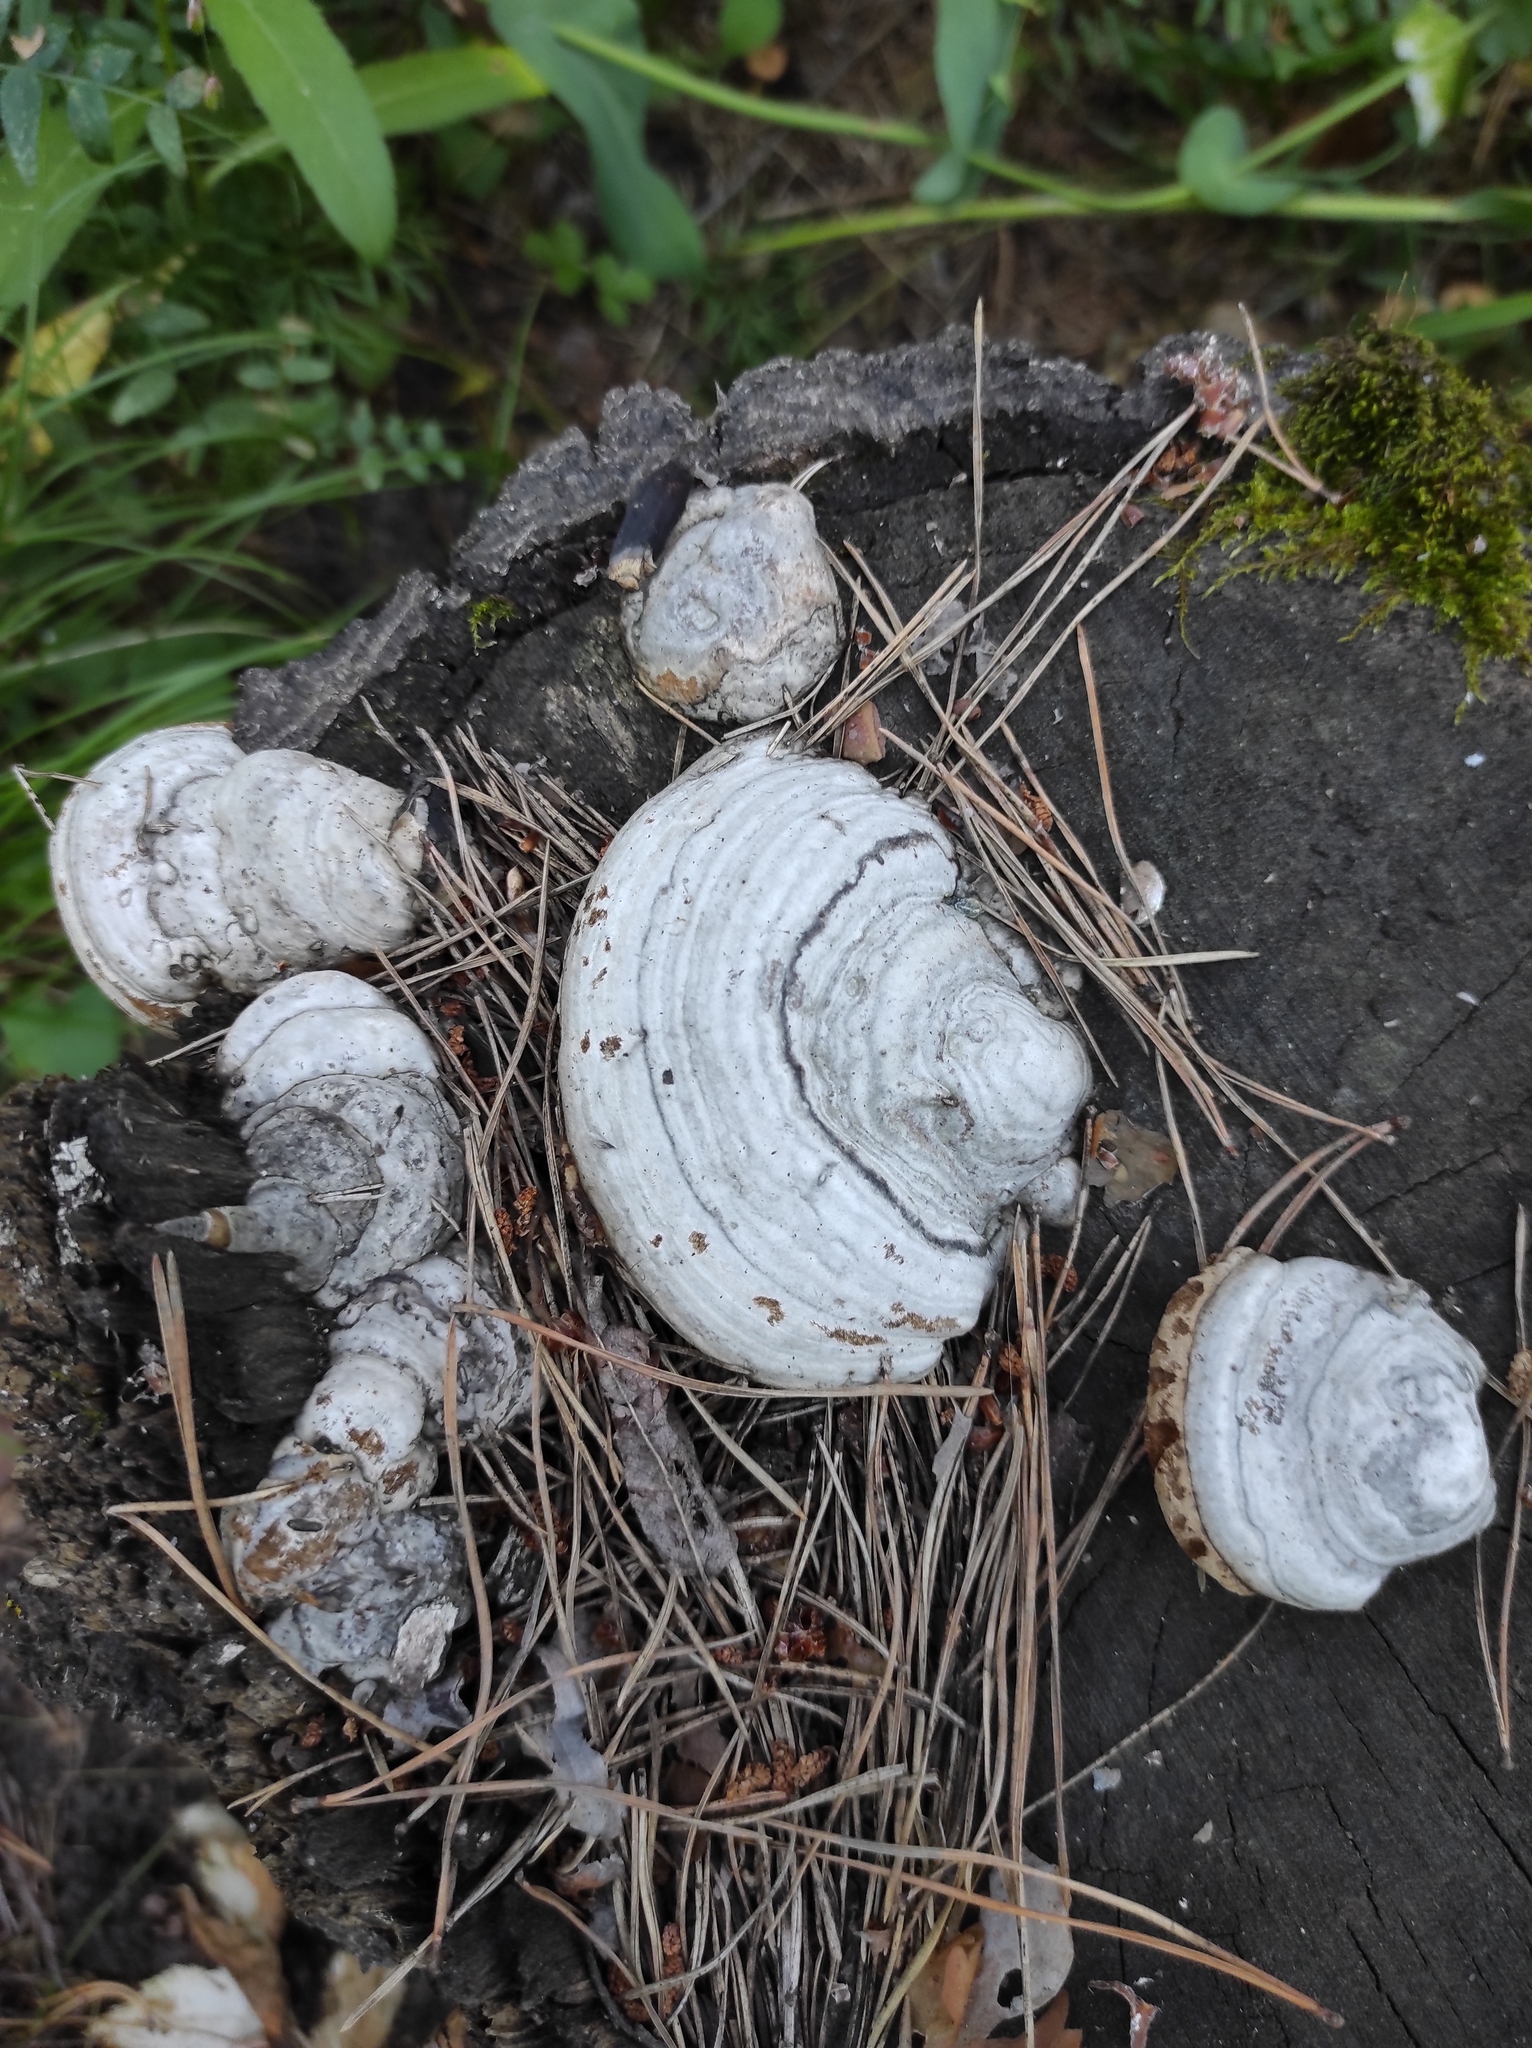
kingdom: Fungi
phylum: Basidiomycota
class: Agaricomycetes
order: Polyporales
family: Polyporaceae
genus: Fomes
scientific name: Fomes fomentarius
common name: Hoof fungus
